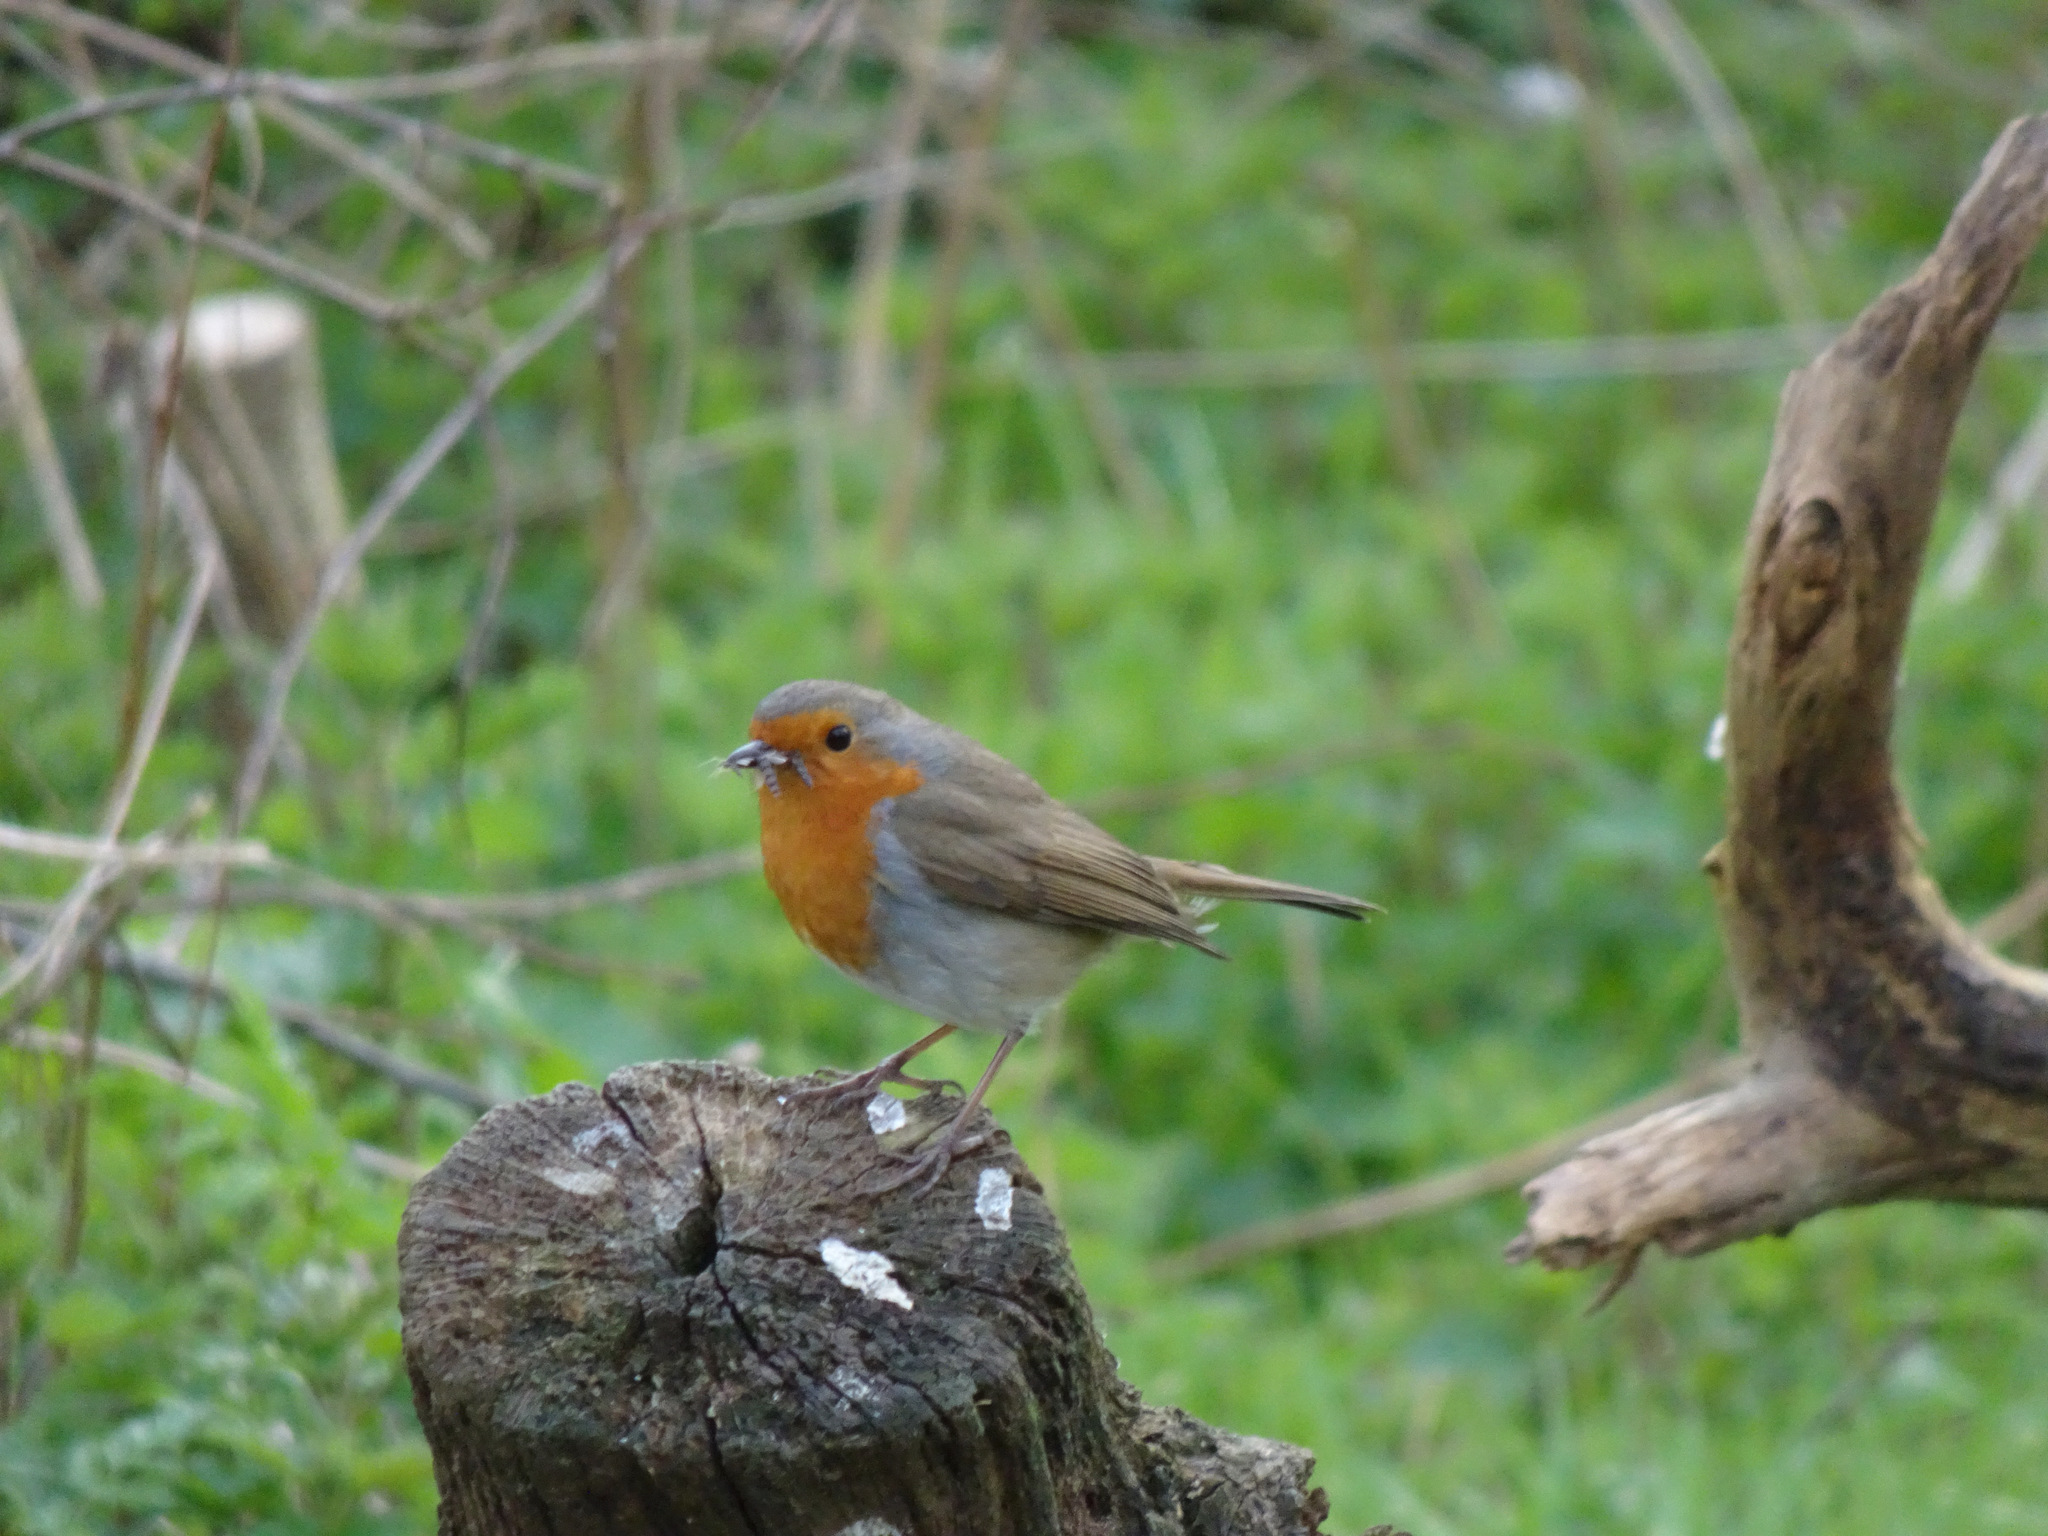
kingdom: Animalia
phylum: Chordata
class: Aves
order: Passeriformes
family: Muscicapidae
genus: Erithacus
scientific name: Erithacus rubecula
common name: European robin
